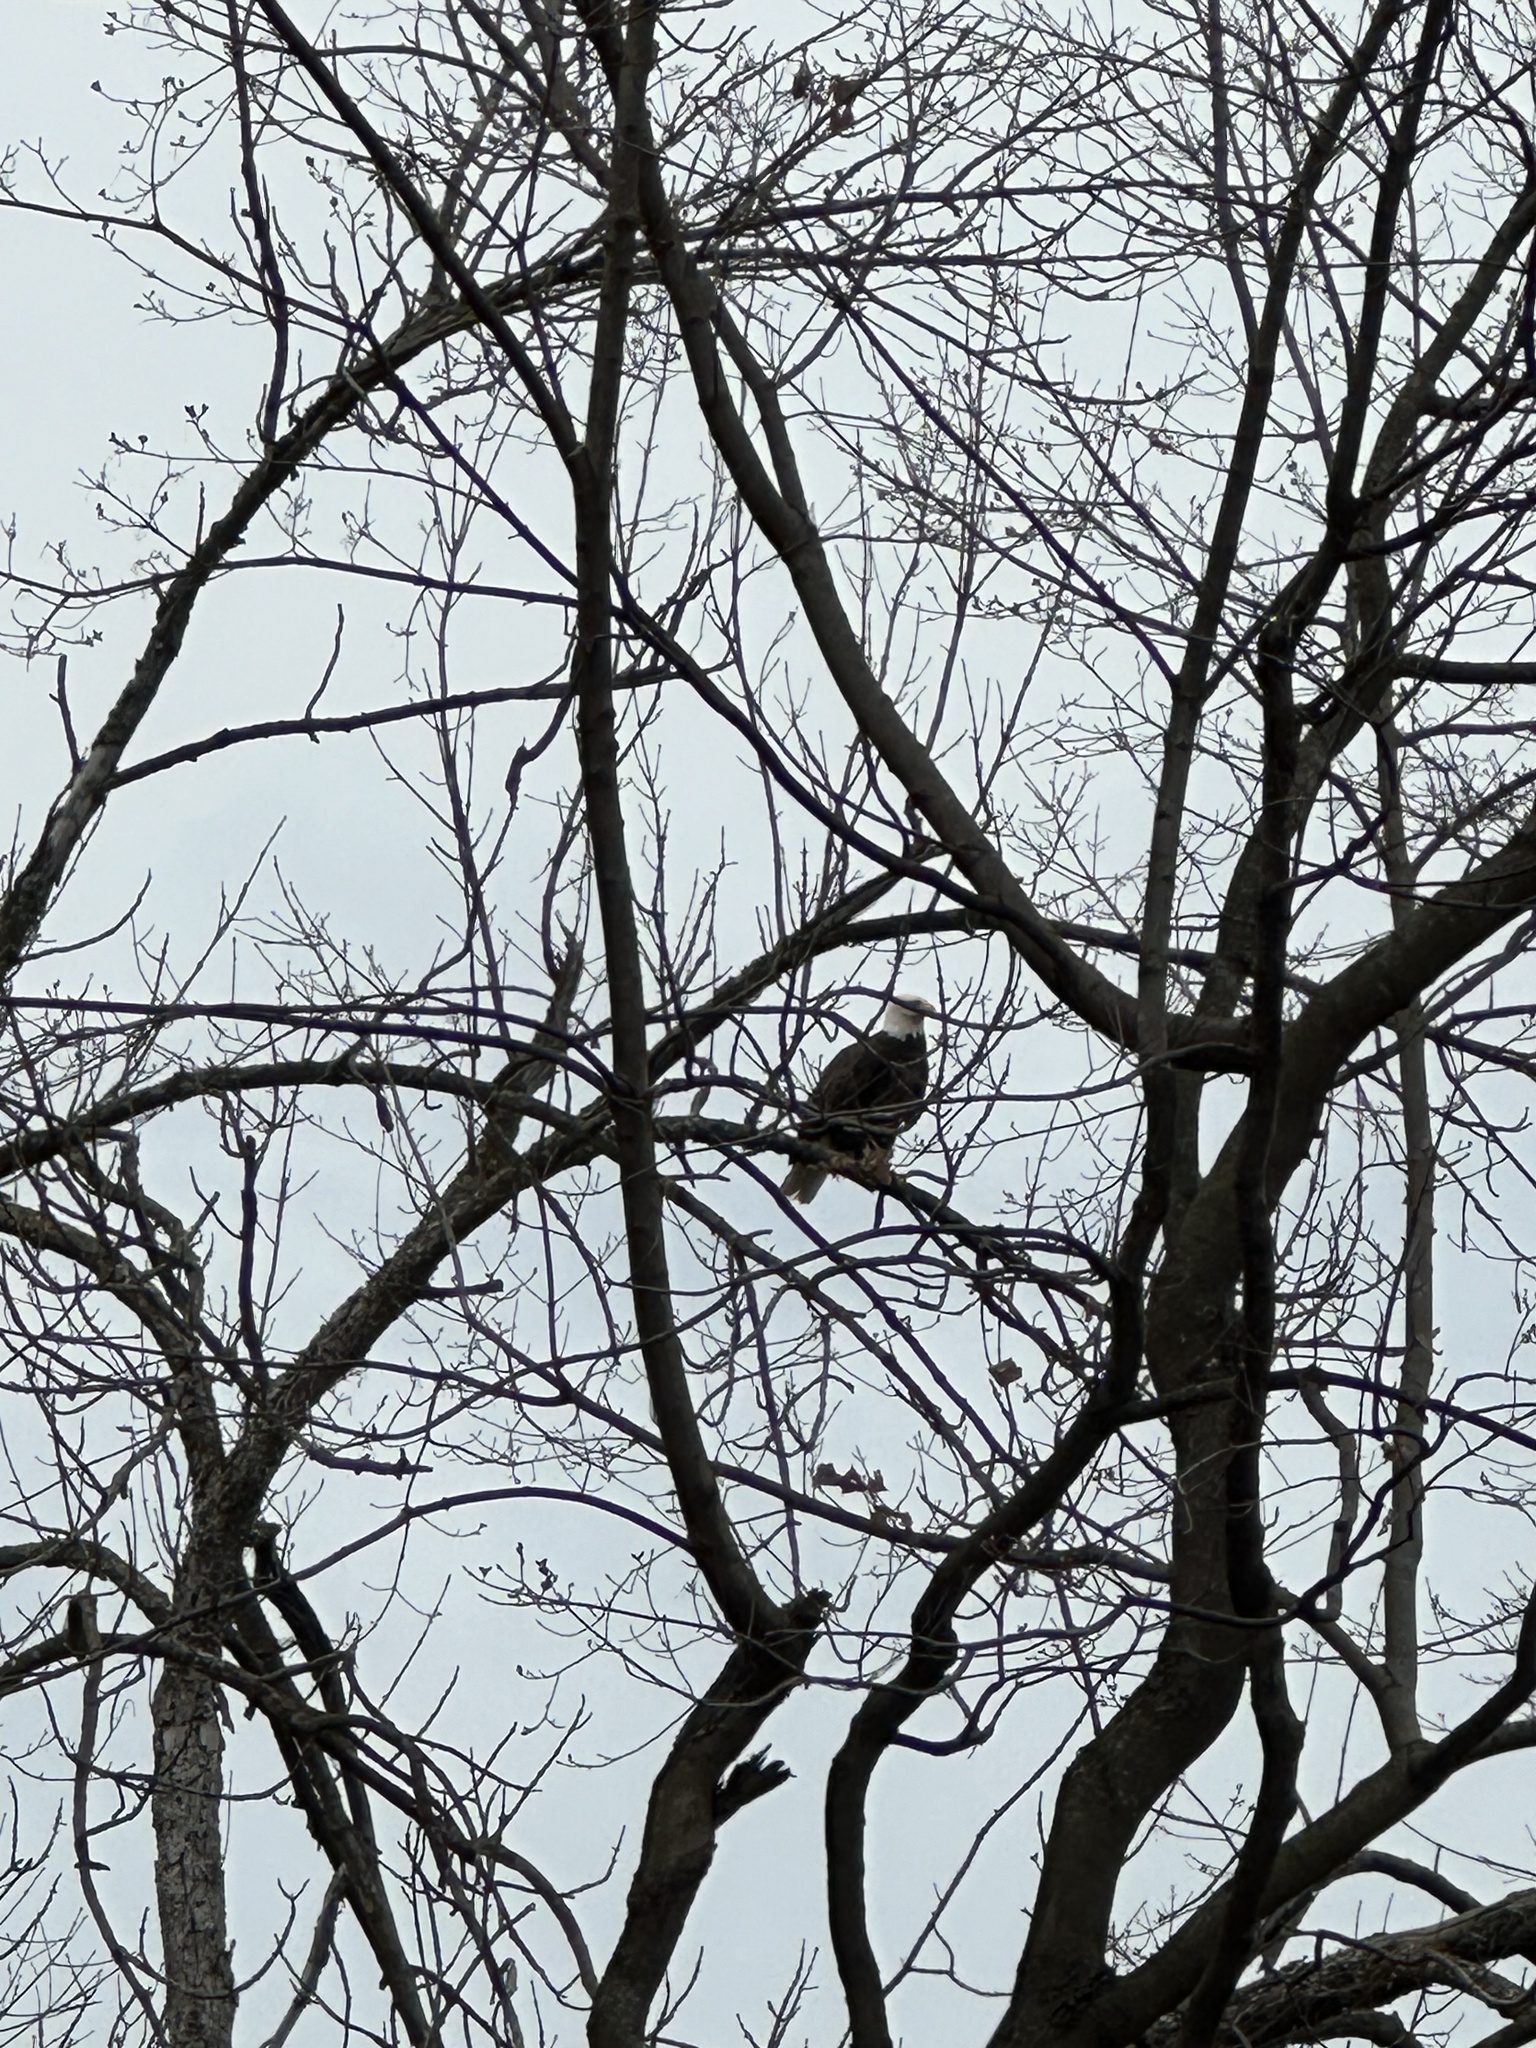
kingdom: Animalia
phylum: Chordata
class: Aves
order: Accipitriformes
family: Accipitridae
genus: Haliaeetus
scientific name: Haliaeetus leucocephalus
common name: Bald eagle
